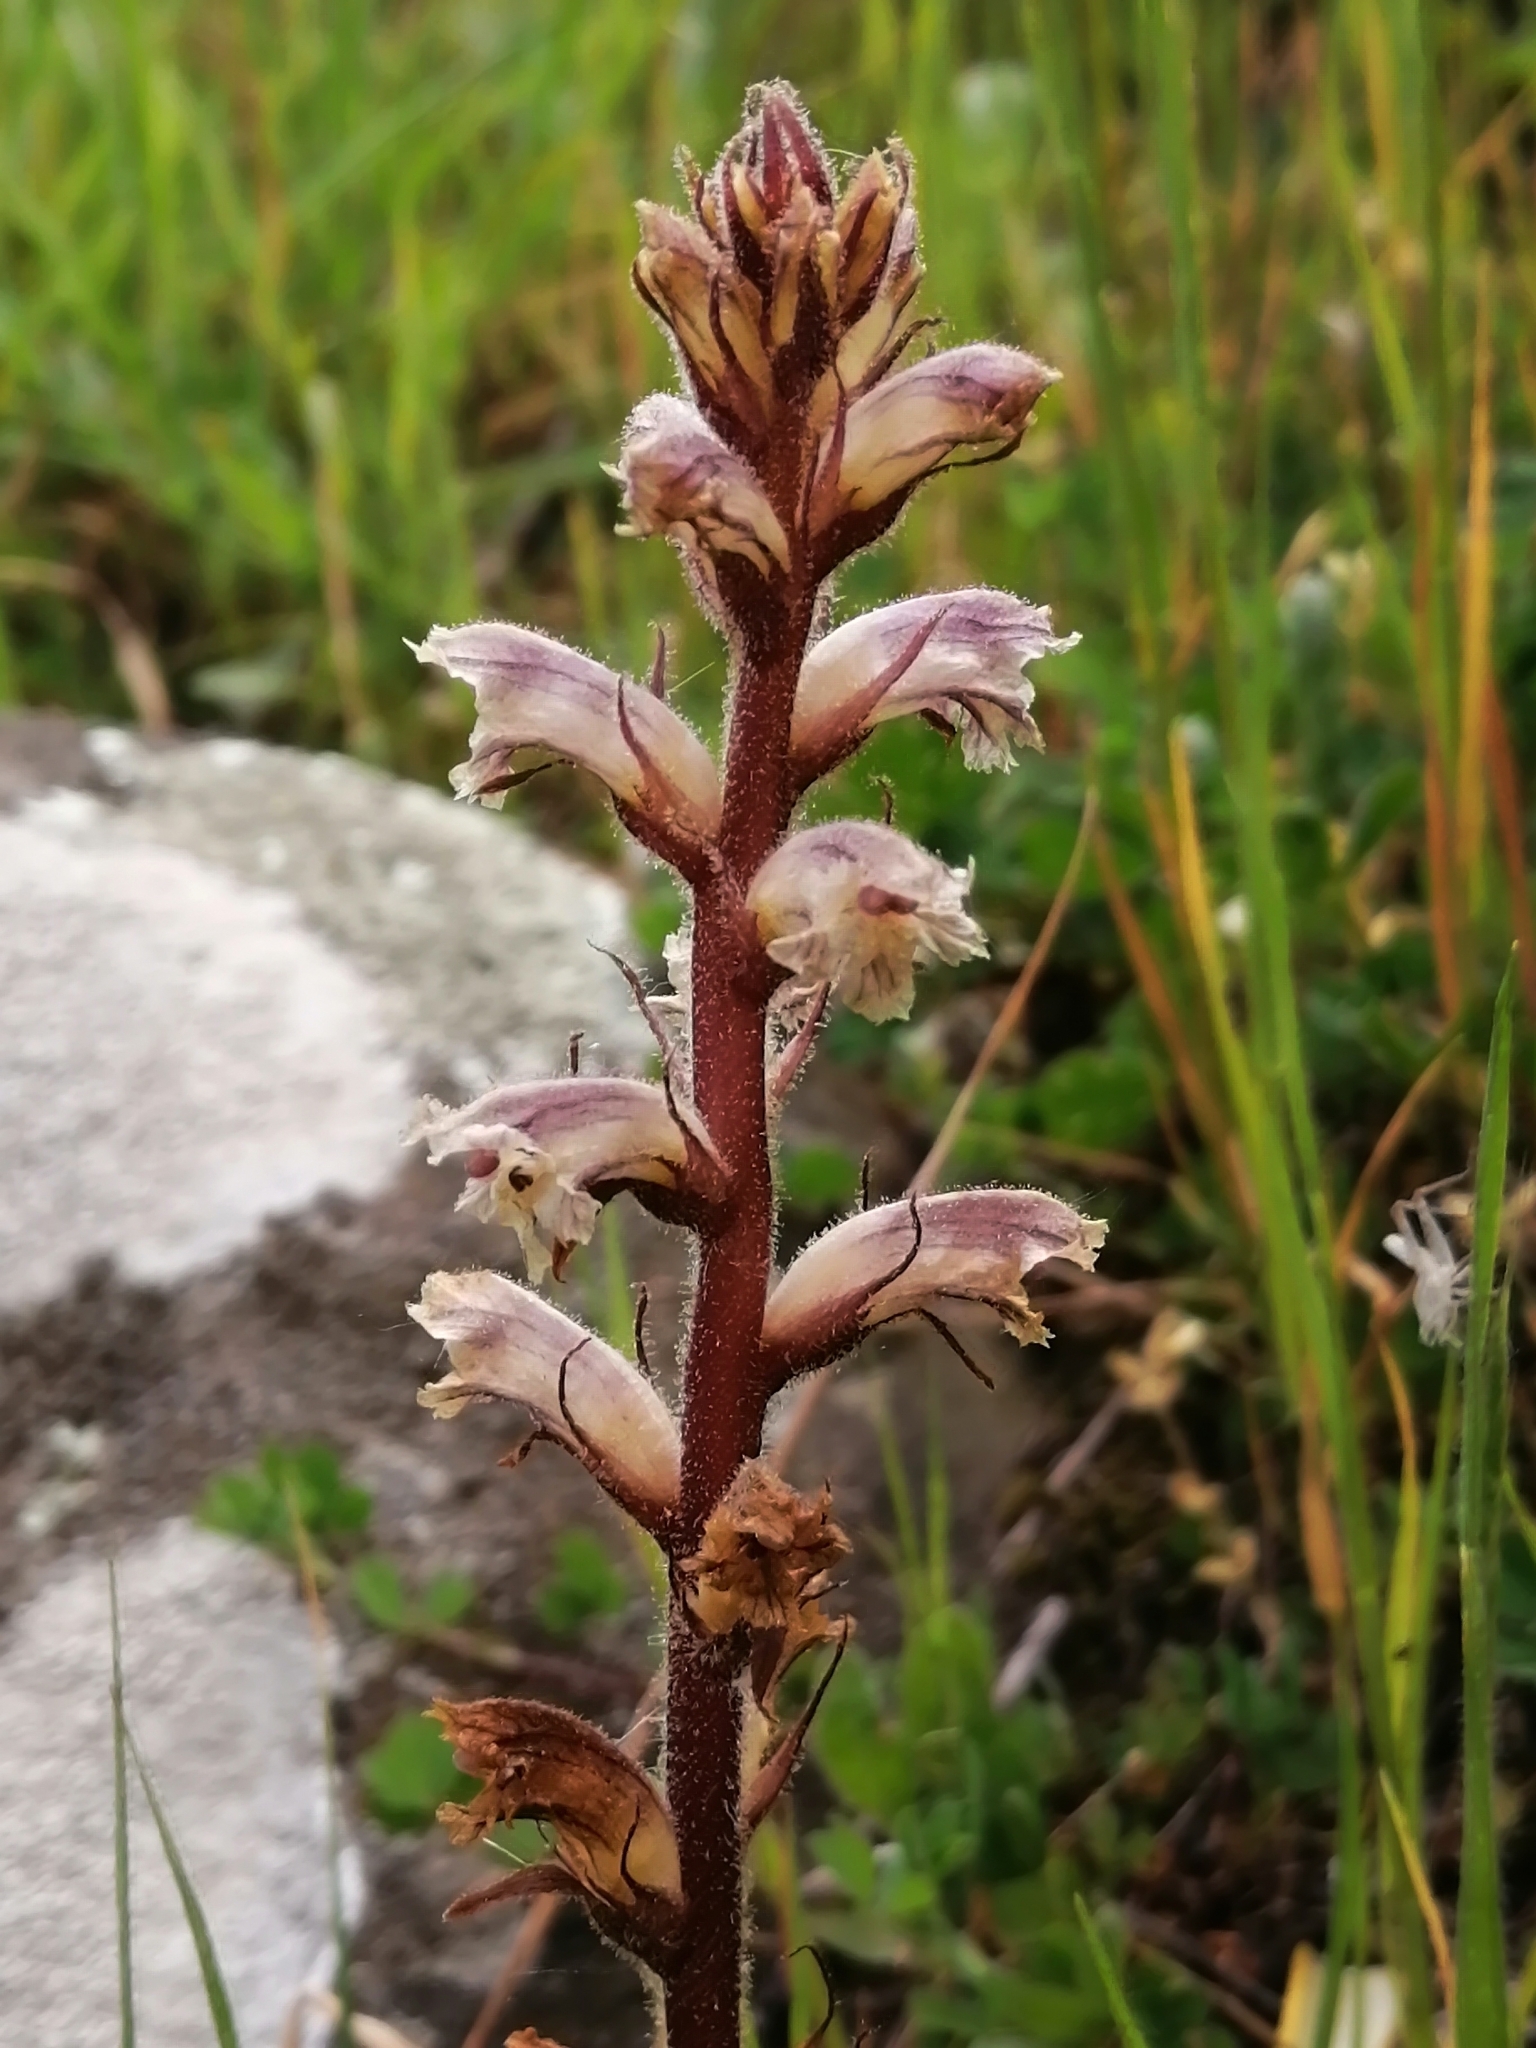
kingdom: Plantae
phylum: Tracheophyta
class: Magnoliopsida
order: Lamiales
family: Orobanchaceae
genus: Orobanche
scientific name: Orobanche minor
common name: Common broomrape
